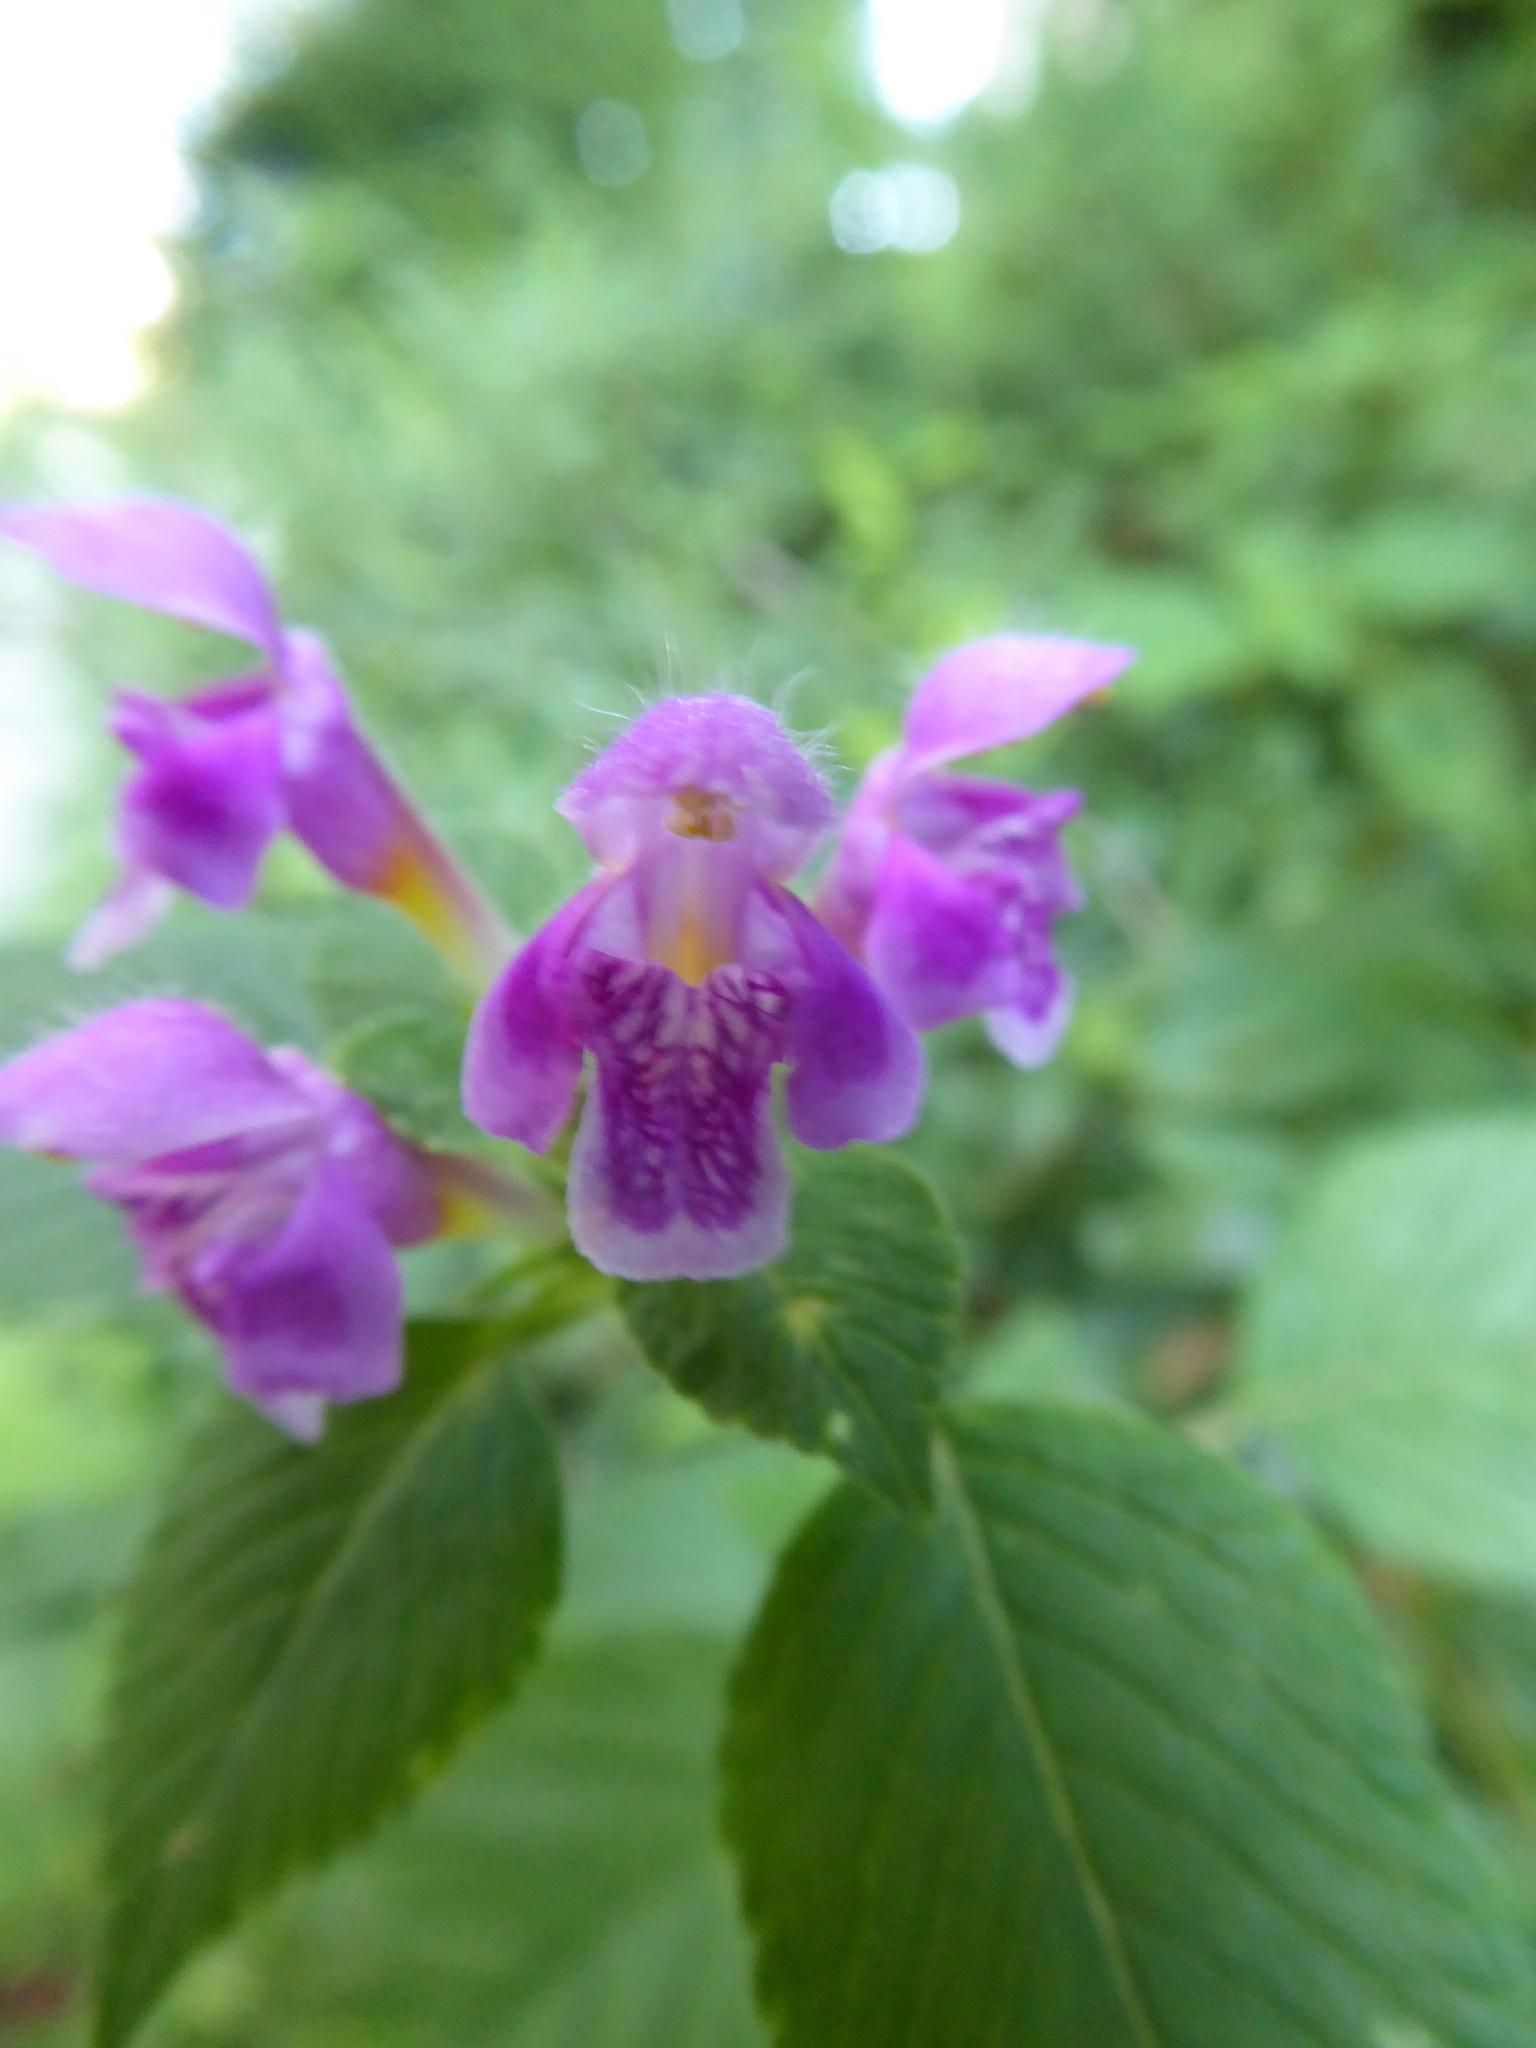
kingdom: Plantae
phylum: Tracheophyta
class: Magnoliopsida
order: Lamiales
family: Lamiaceae
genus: Galeopsis
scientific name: Galeopsis pubescens
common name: Downy hemp-nettle
